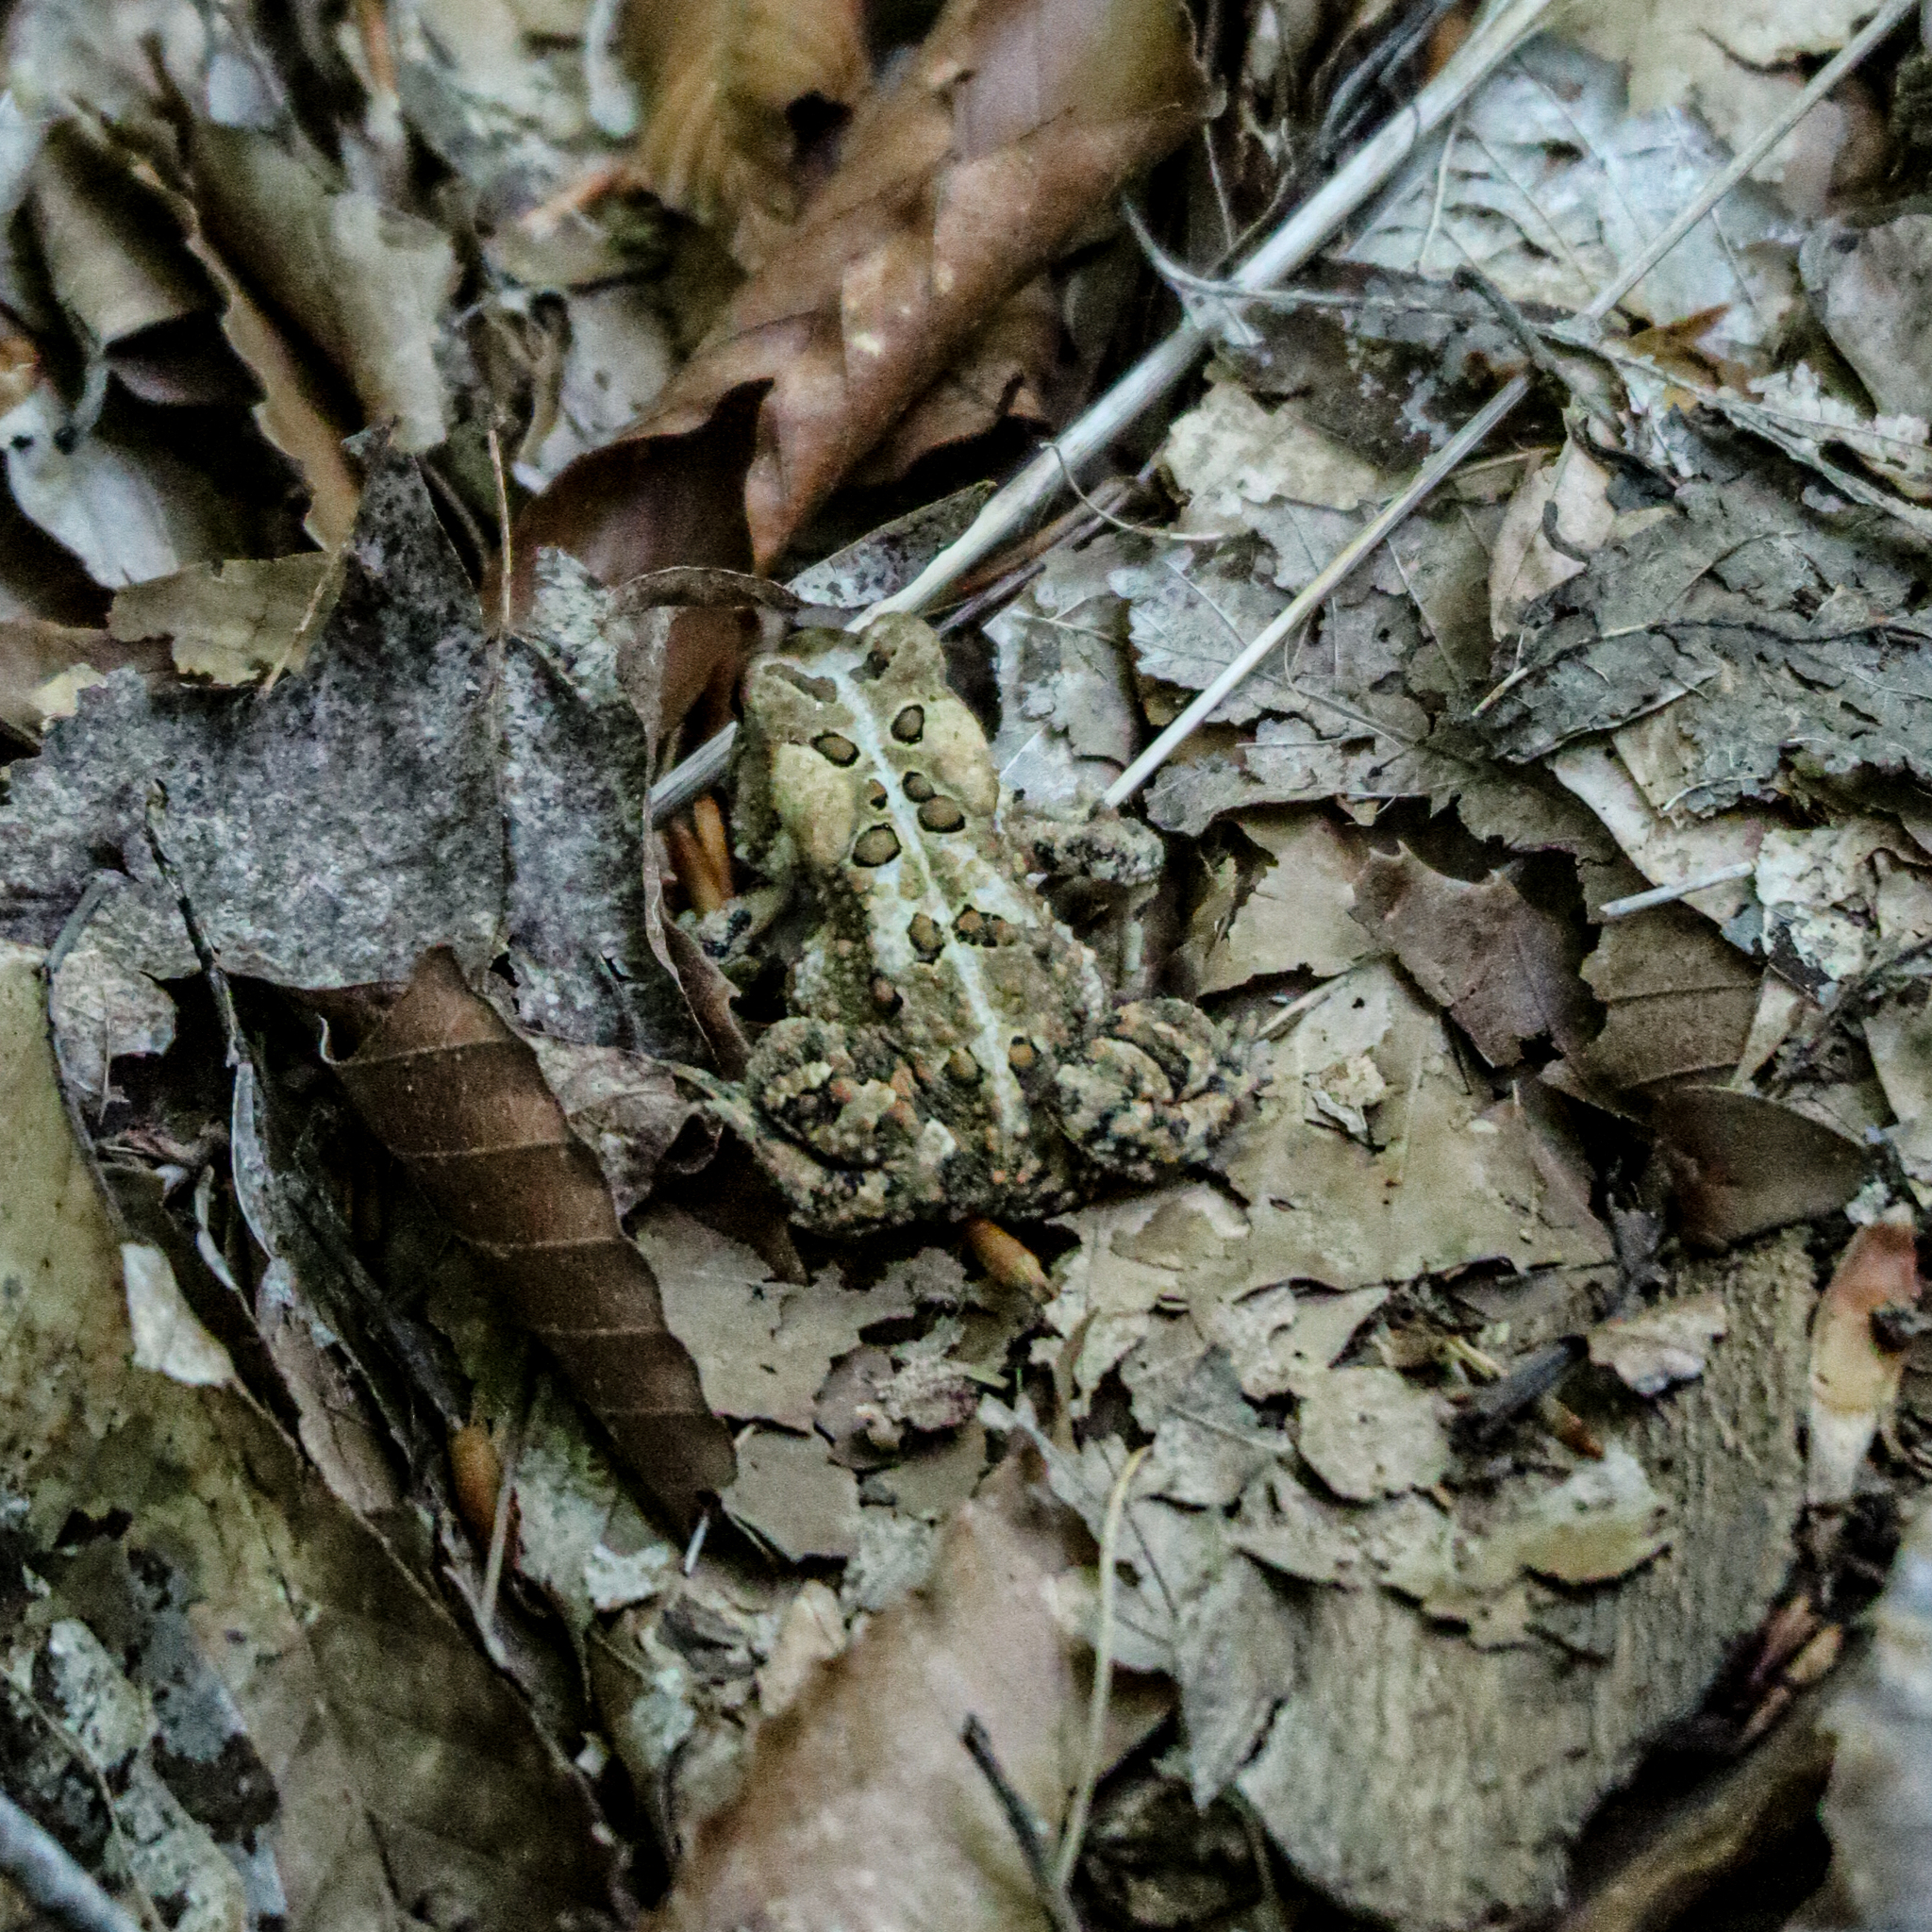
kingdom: Animalia
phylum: Chordata
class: Amphibia
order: Anura
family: Bufonidae
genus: Anaxyrus
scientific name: Anaxyrus americanus
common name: American toad
